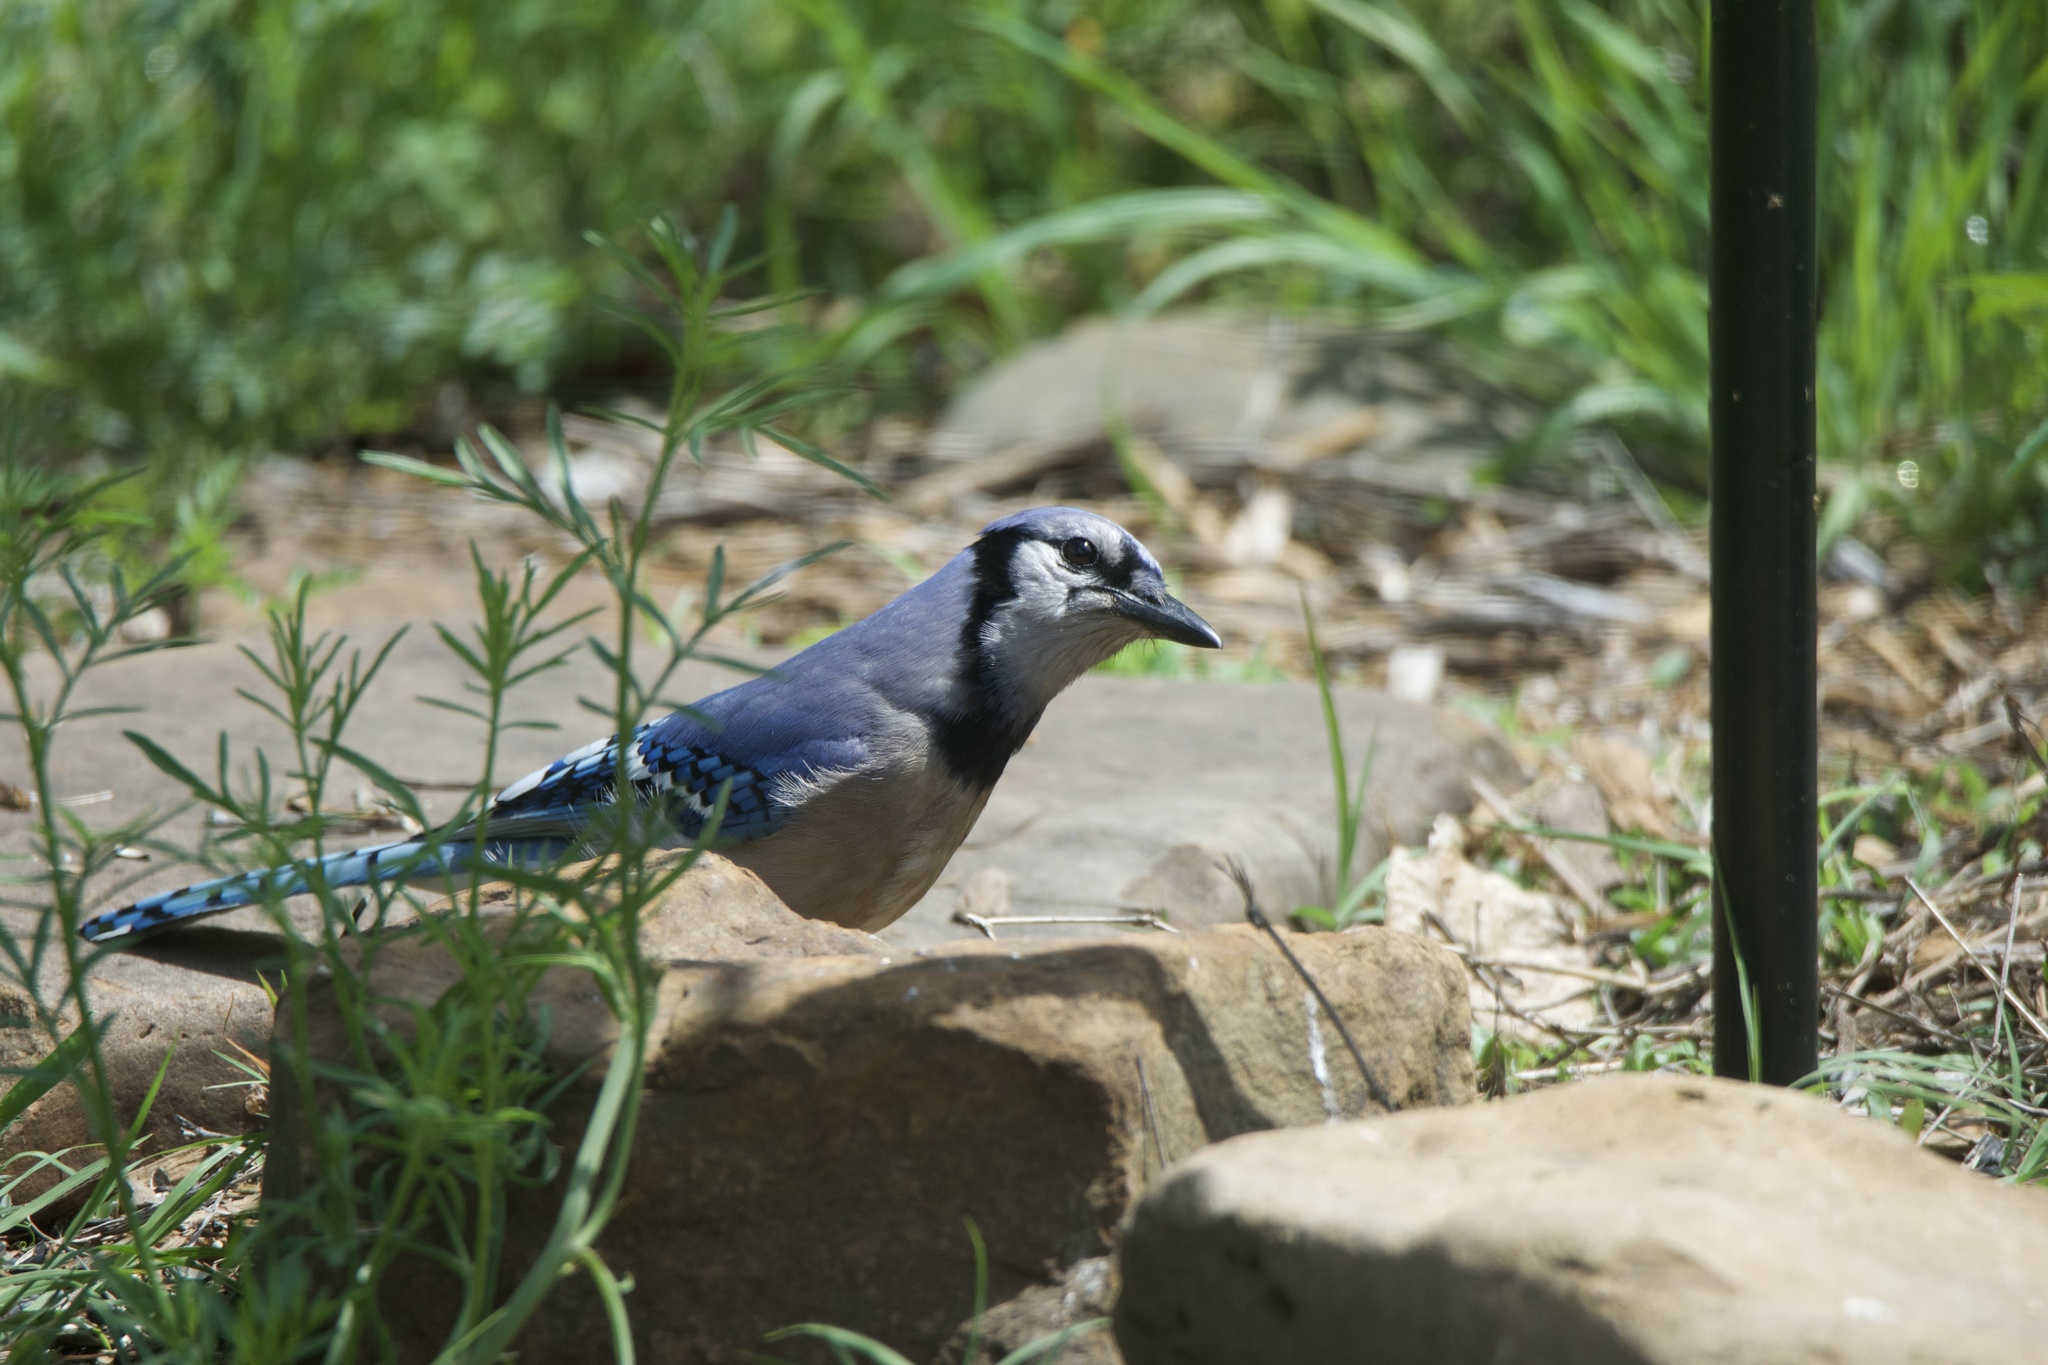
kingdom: Animalia
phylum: Chordata
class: Aves
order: Passeriformes
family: Corvidae
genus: Cyanocitta
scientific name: Cyanocitta cristata
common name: Blue jay
